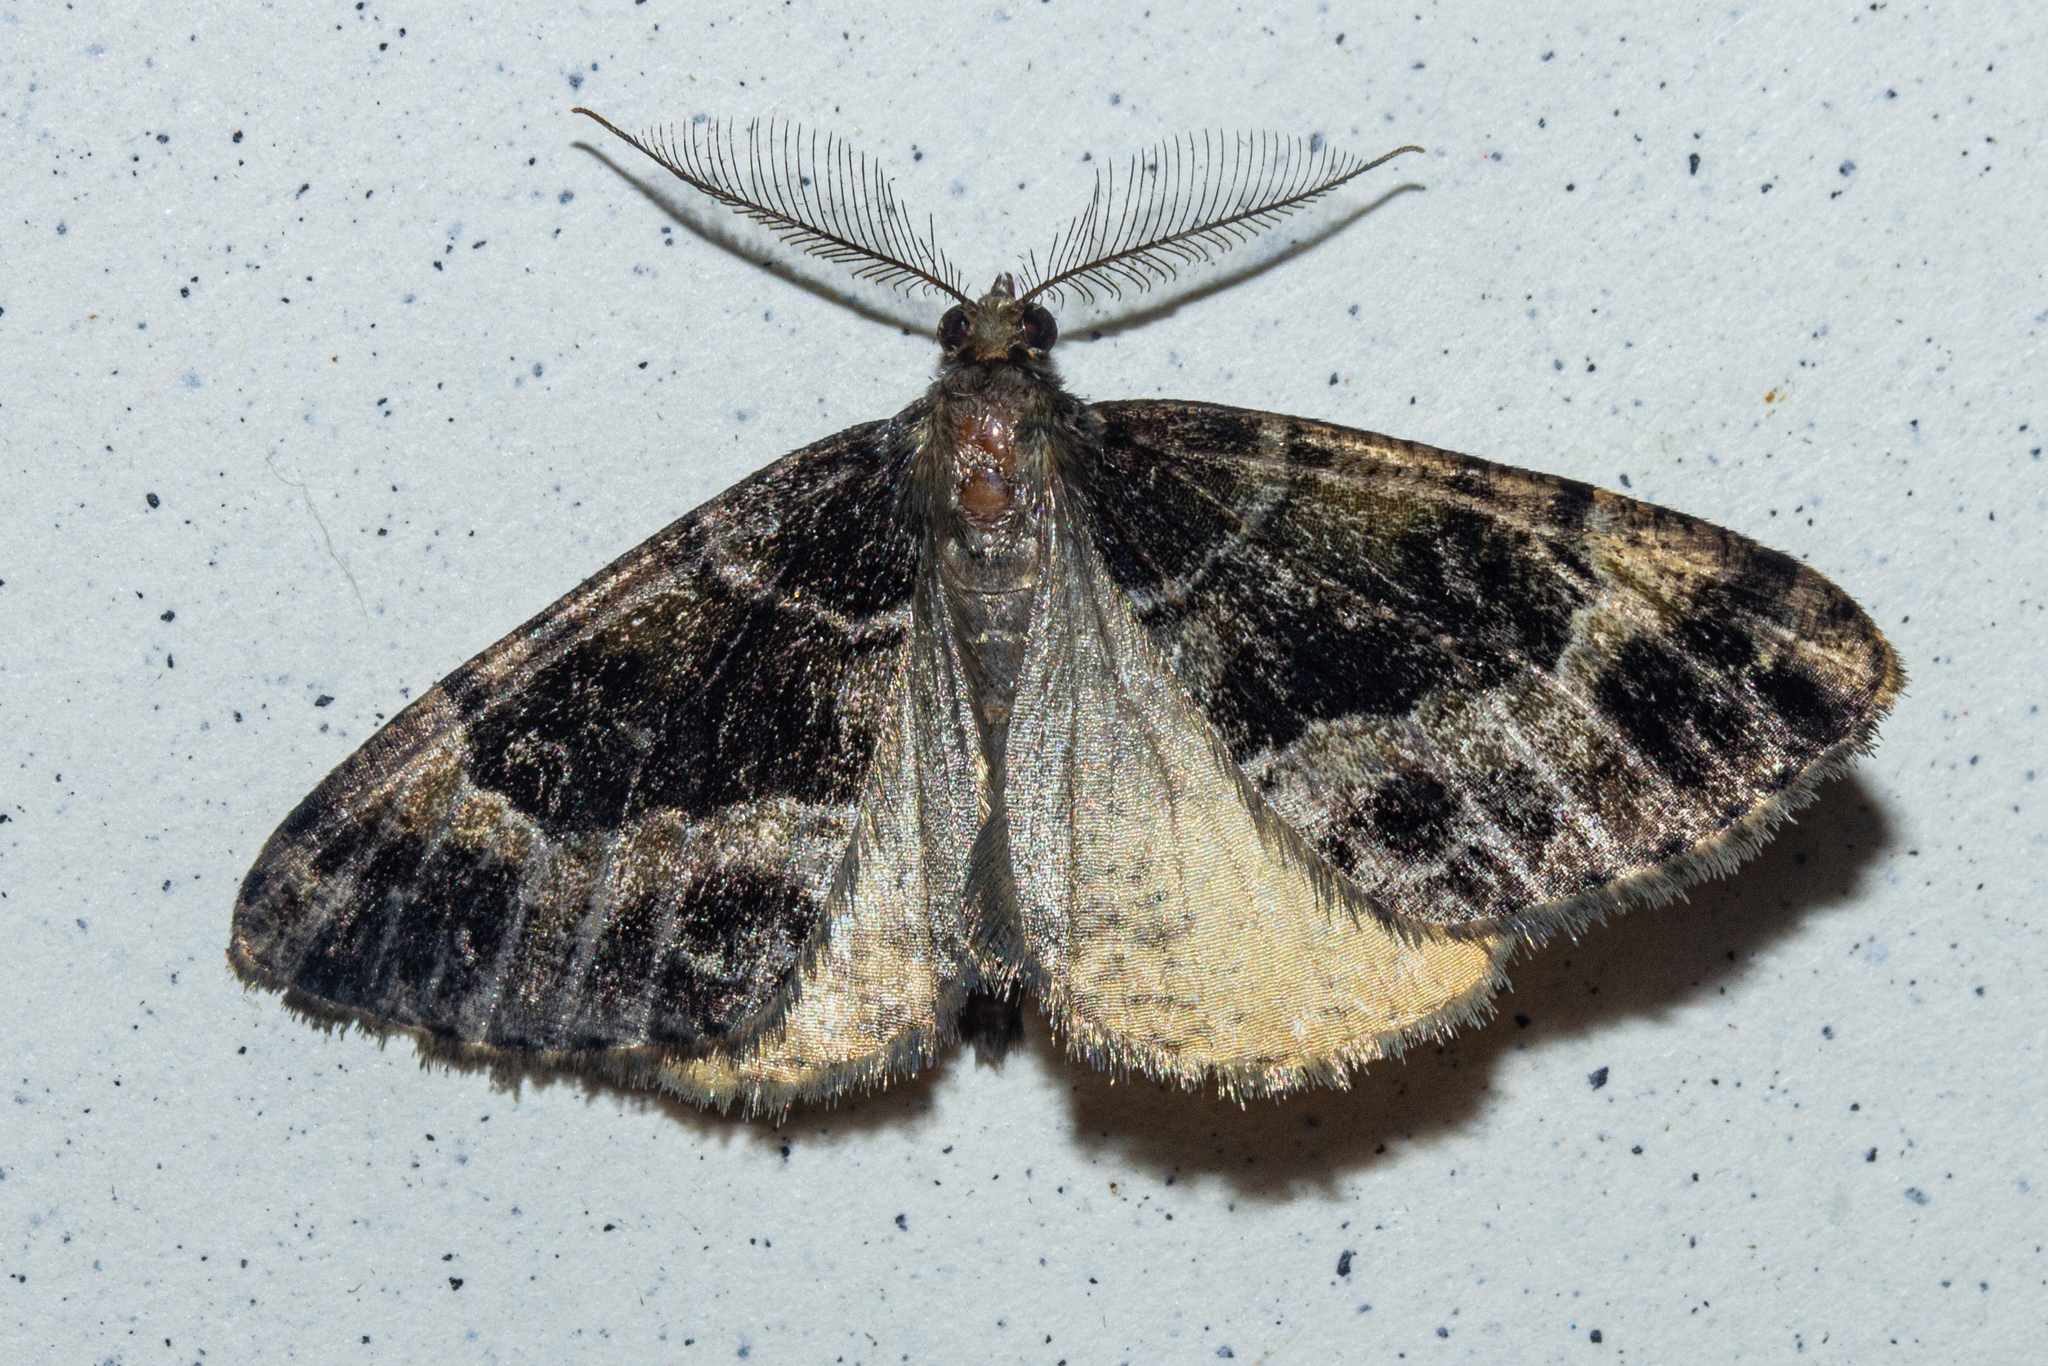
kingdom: Animalia
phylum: Arthropoda
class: Insecta
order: Lepidoptera
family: Geometridae
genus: Pseudocoremia
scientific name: Pseudocoremia productata
